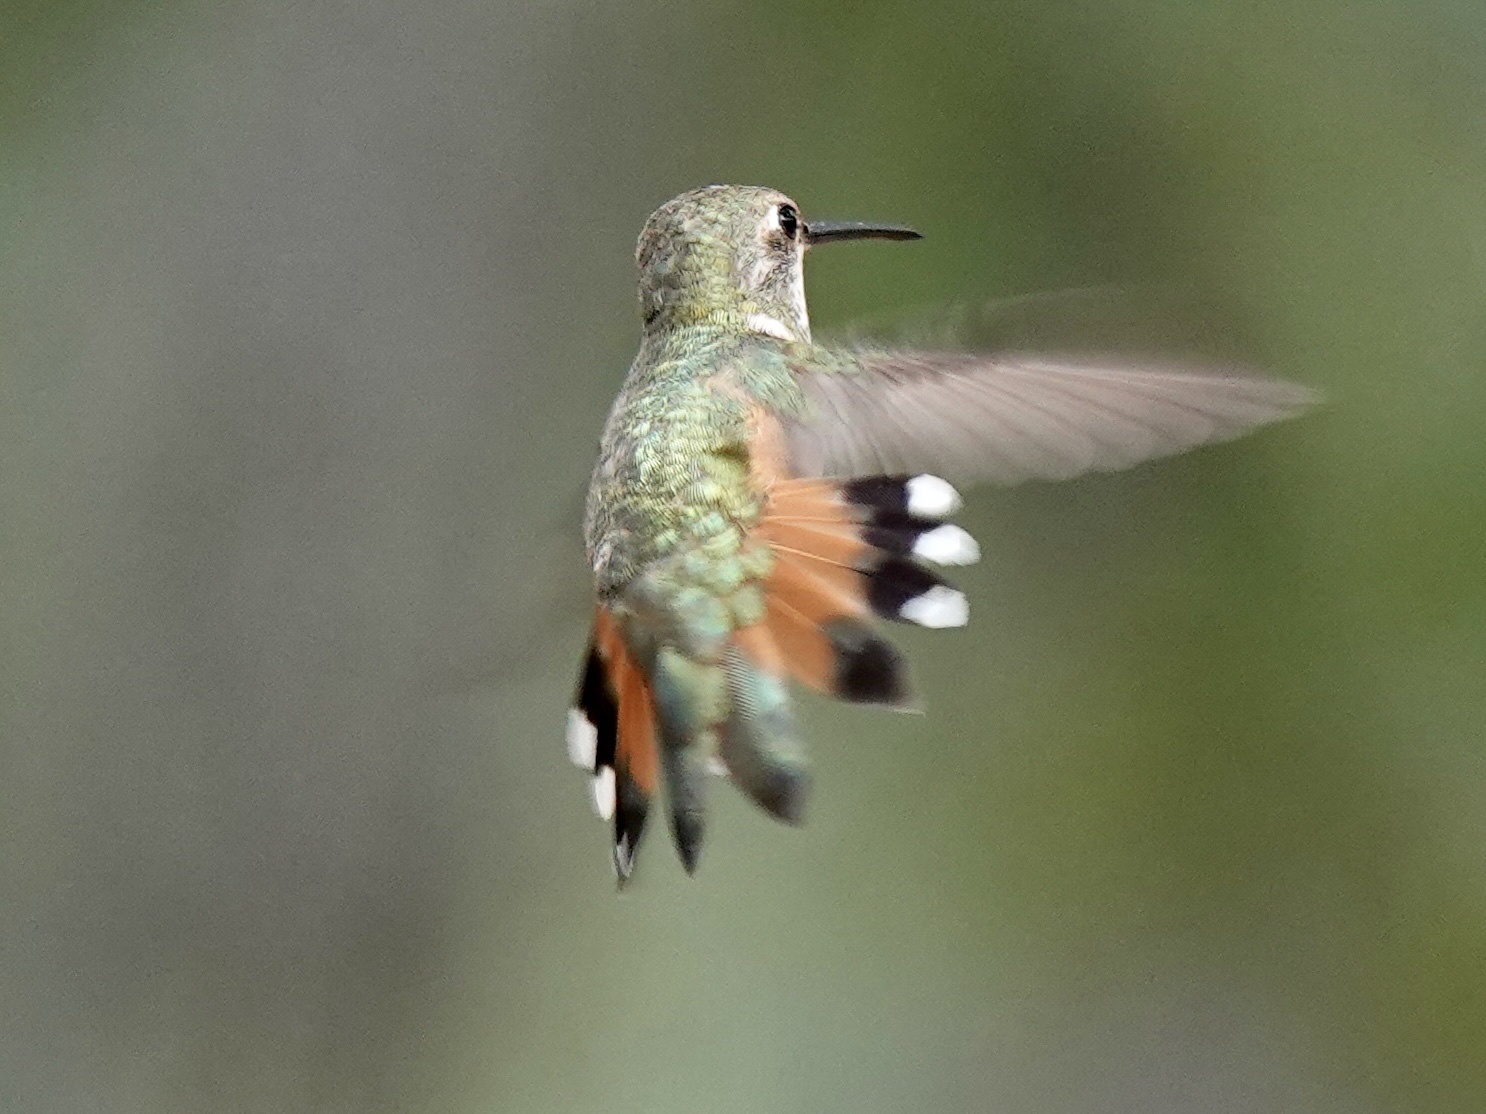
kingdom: Animalia
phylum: Chordata
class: Aves
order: Apodiformes
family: Trochilidae
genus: Selasphorus
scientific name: Selasphorus rufus
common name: Rufous hummingbird
